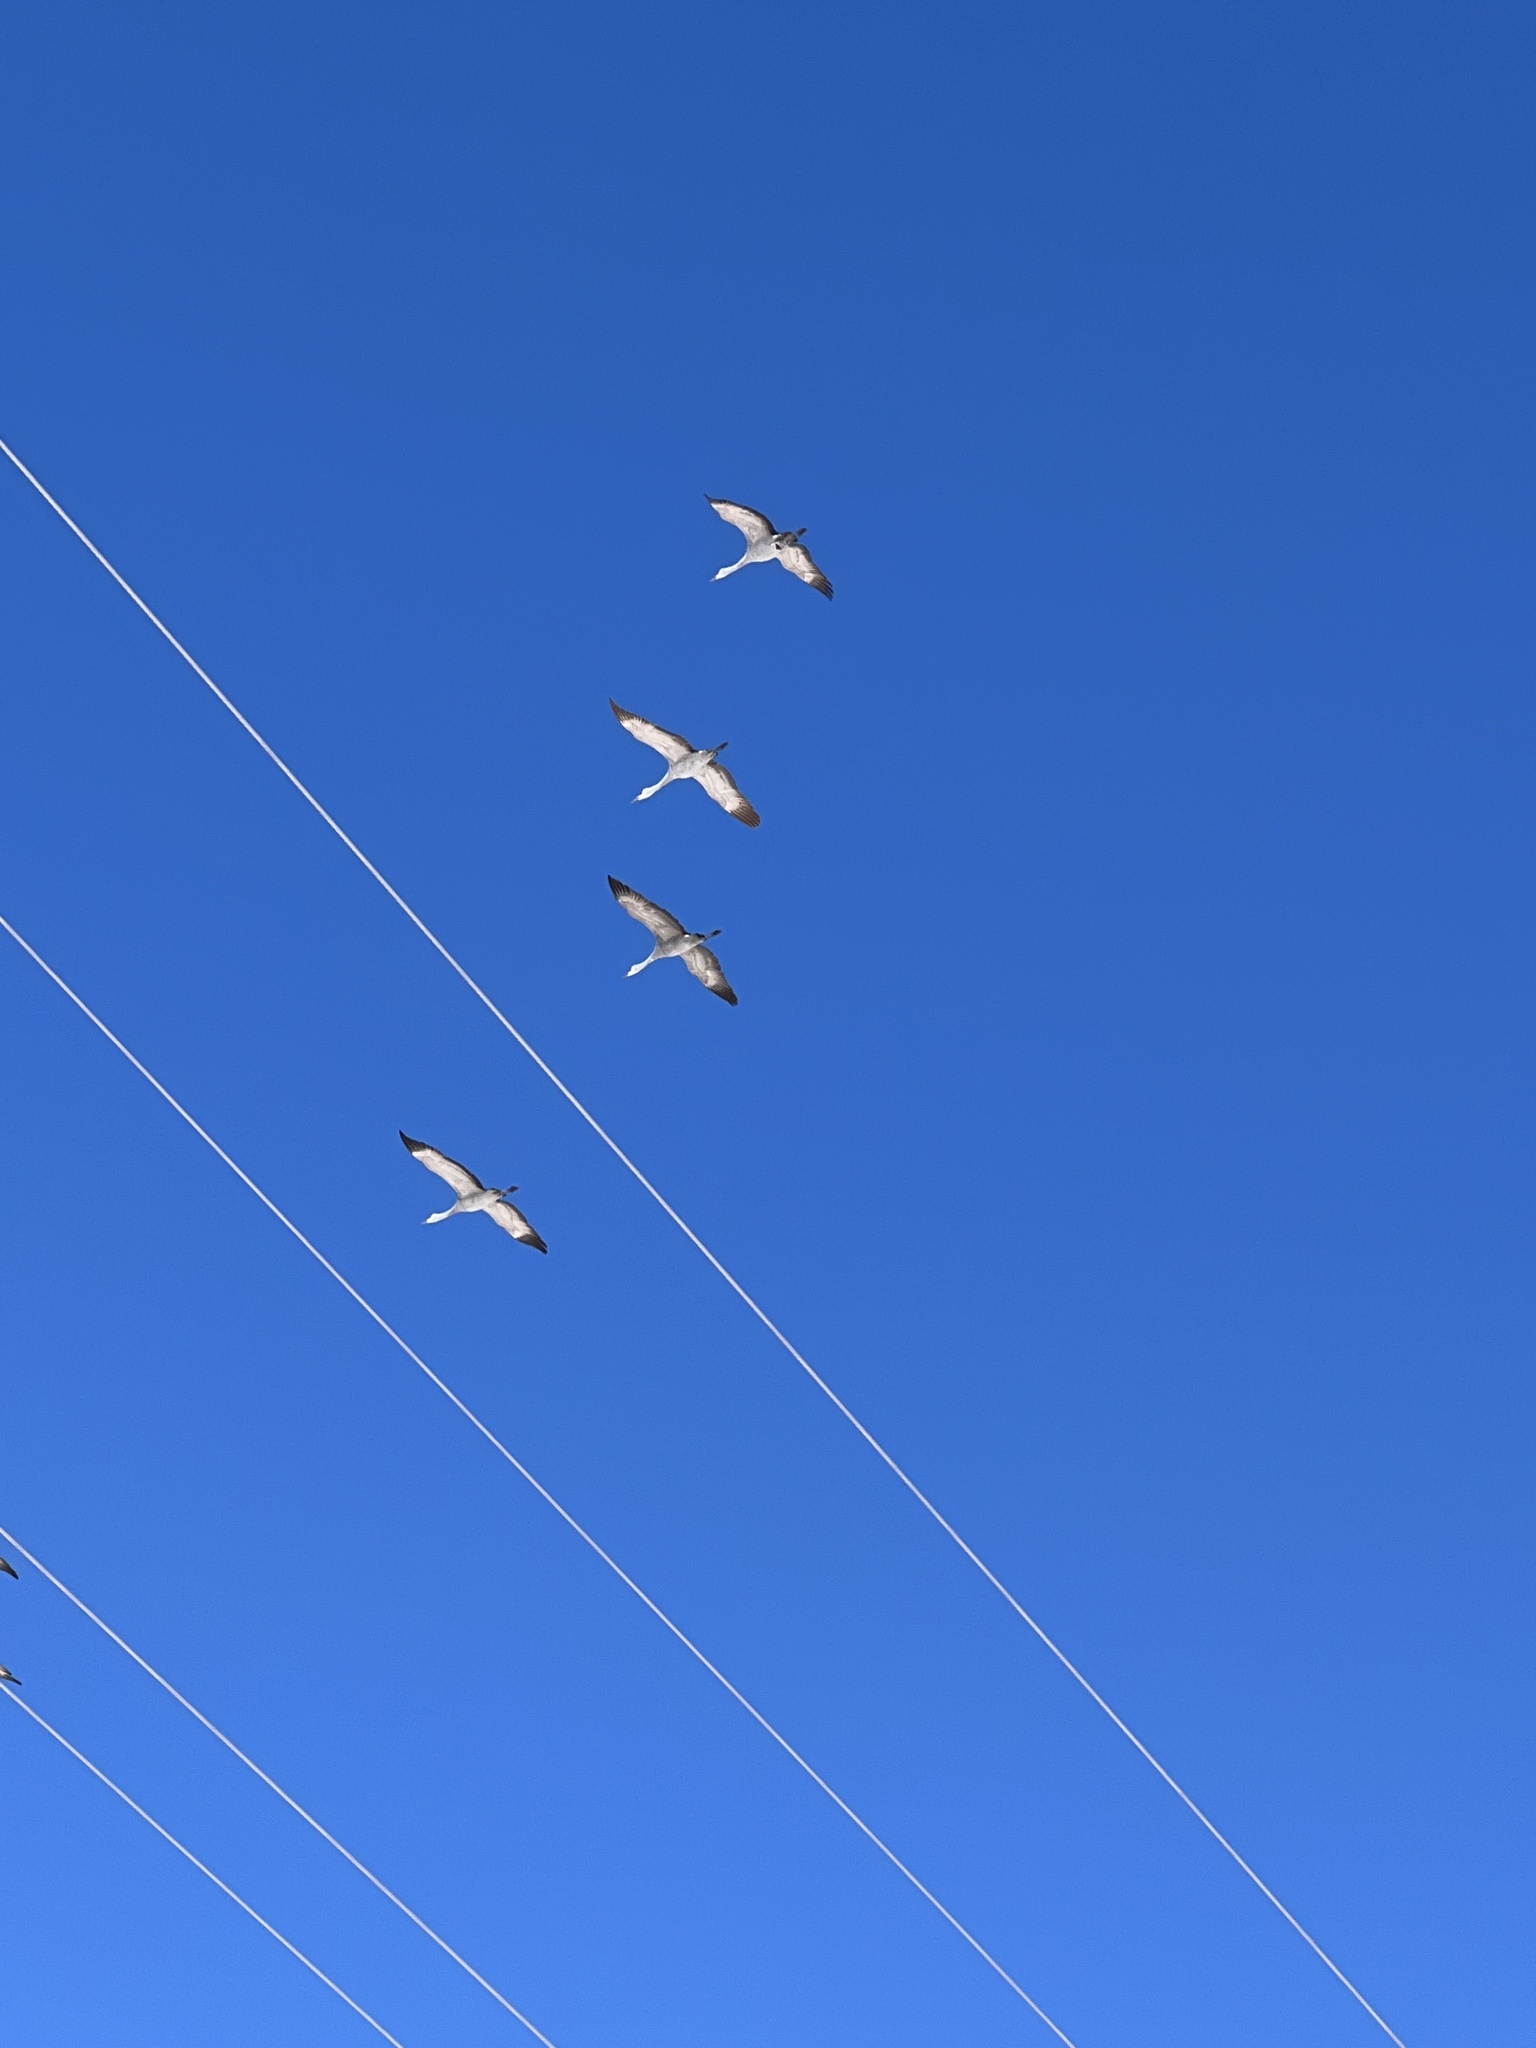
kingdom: Animalia
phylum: Chordata
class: Aves
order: Gruiformes
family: Gruidae
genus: Grus
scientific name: Grus canadensis
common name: Sandhill crane
